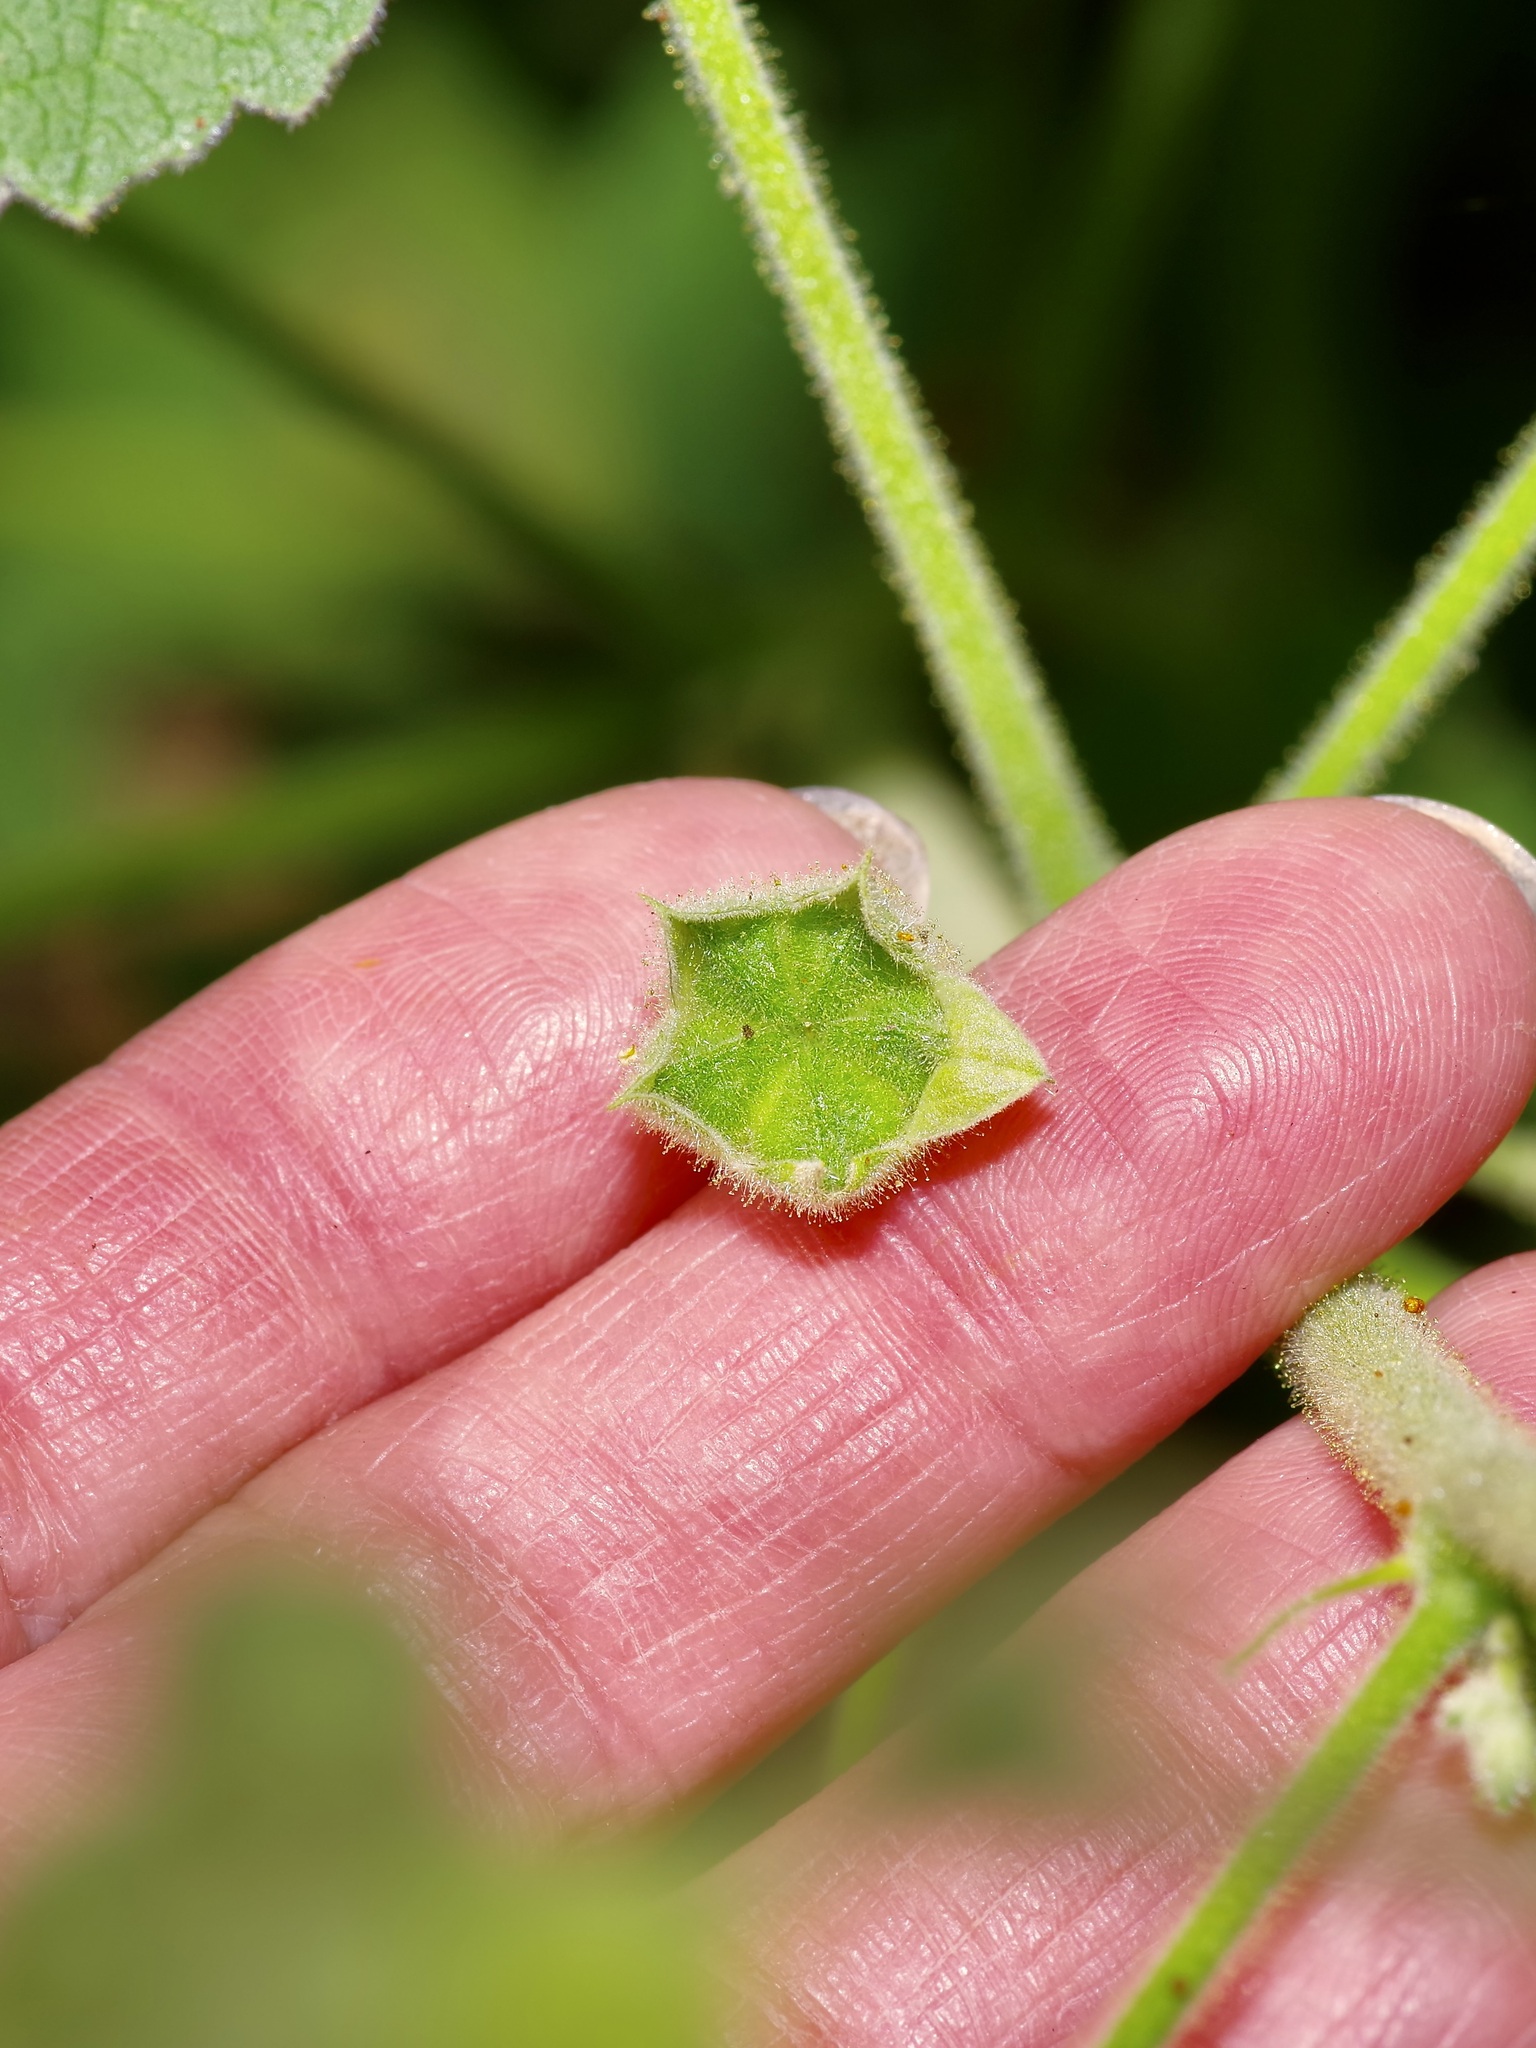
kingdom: Plantae
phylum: Tracheophyta
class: Magnoliopsida
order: Malvales
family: Malvaceae
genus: Allowissadula
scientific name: Allowissadula holosericea
